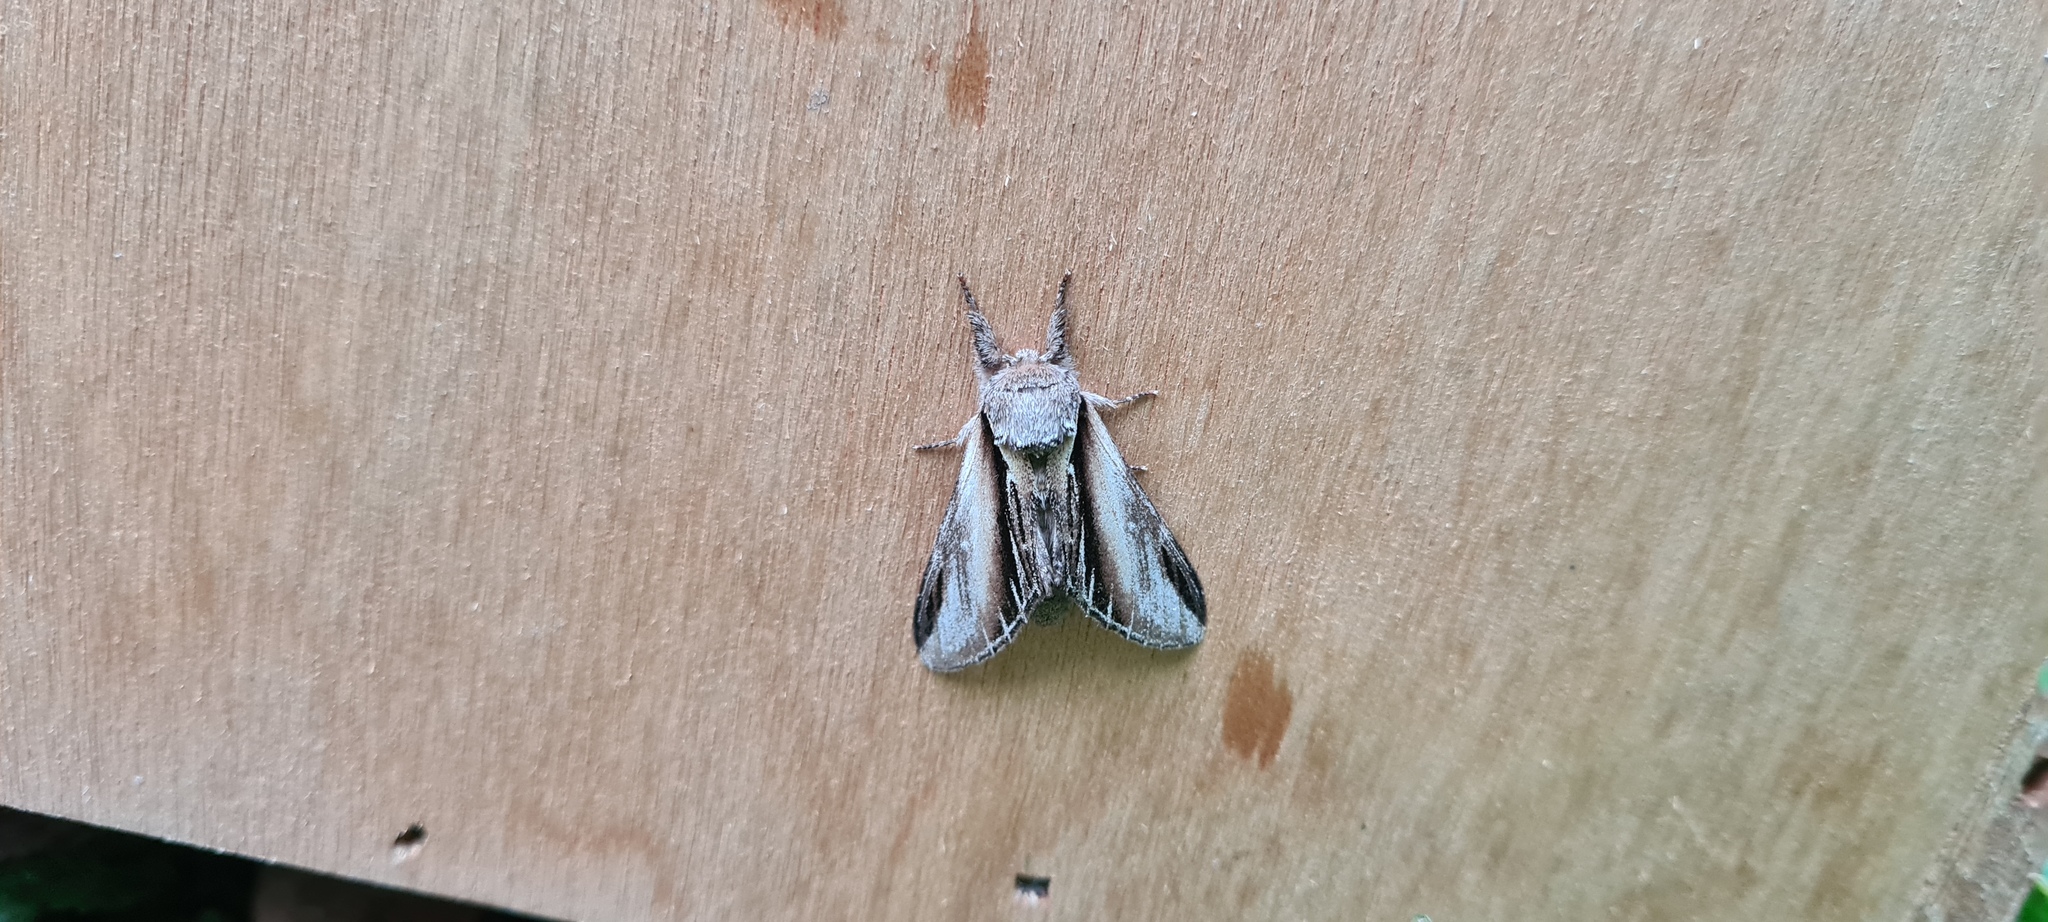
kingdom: Animalia
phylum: Arthropoda
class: Insecta
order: Lepidoptera
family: Notodontidae
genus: Pheosia
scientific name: Pheosia tremula
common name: Swallow prominent
